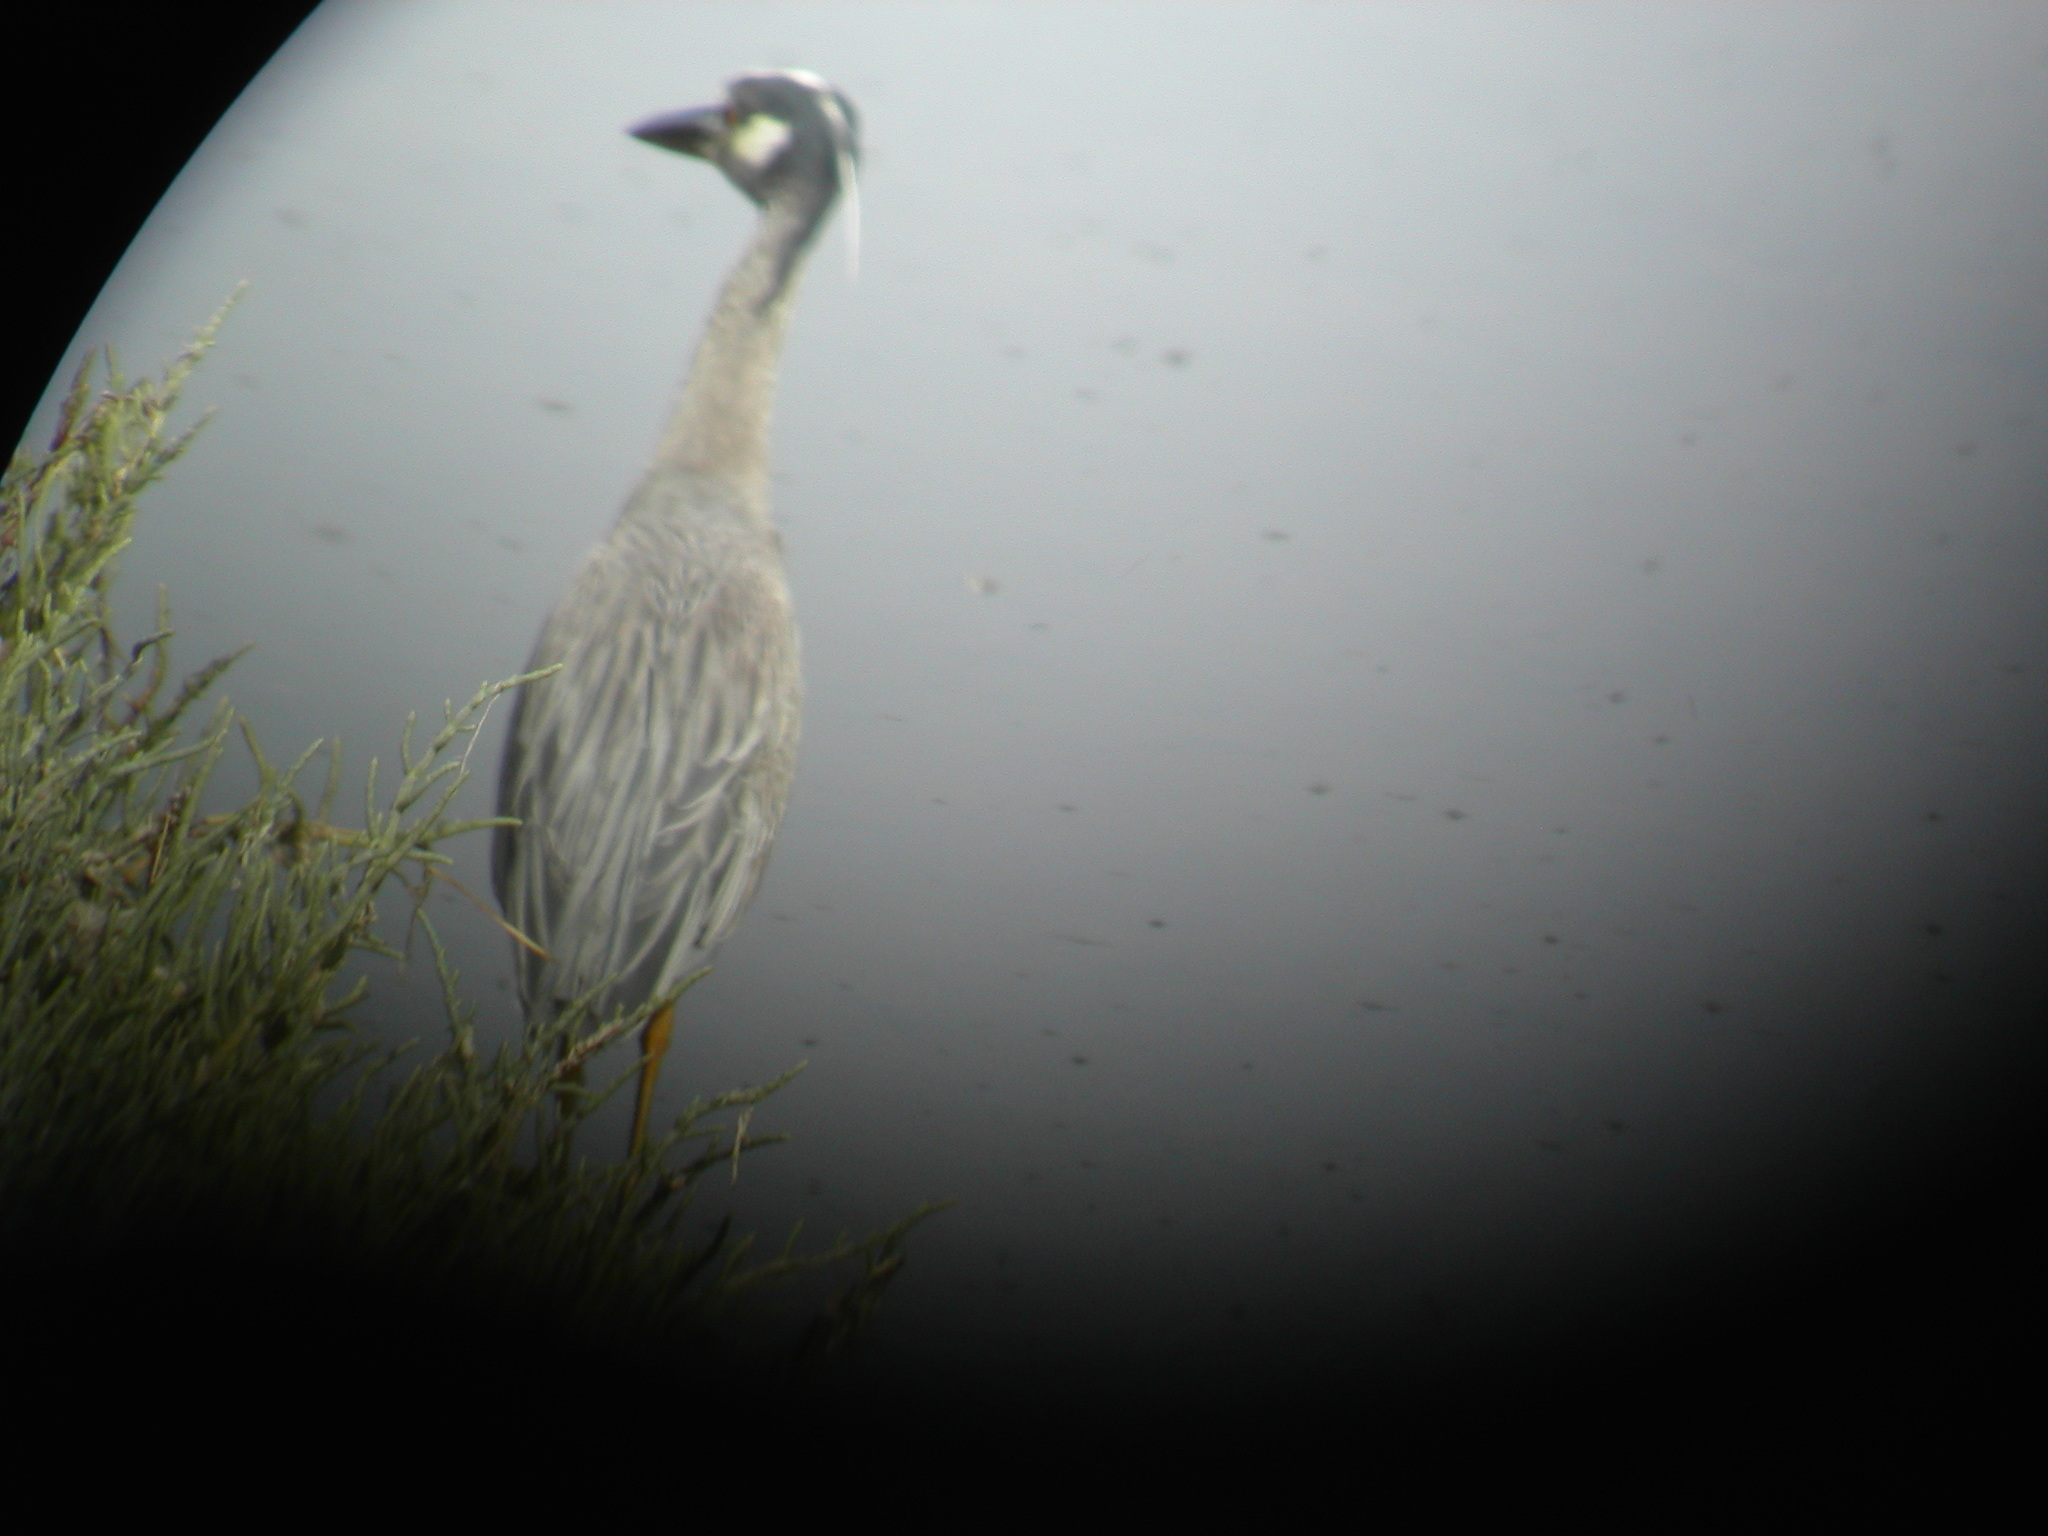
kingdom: Animalia
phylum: Chordata
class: Aves
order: Pelecaniformes
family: Ardeidae
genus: Nyctanassa
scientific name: Nyctanassa violacea
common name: Yellow-crowned night heron
